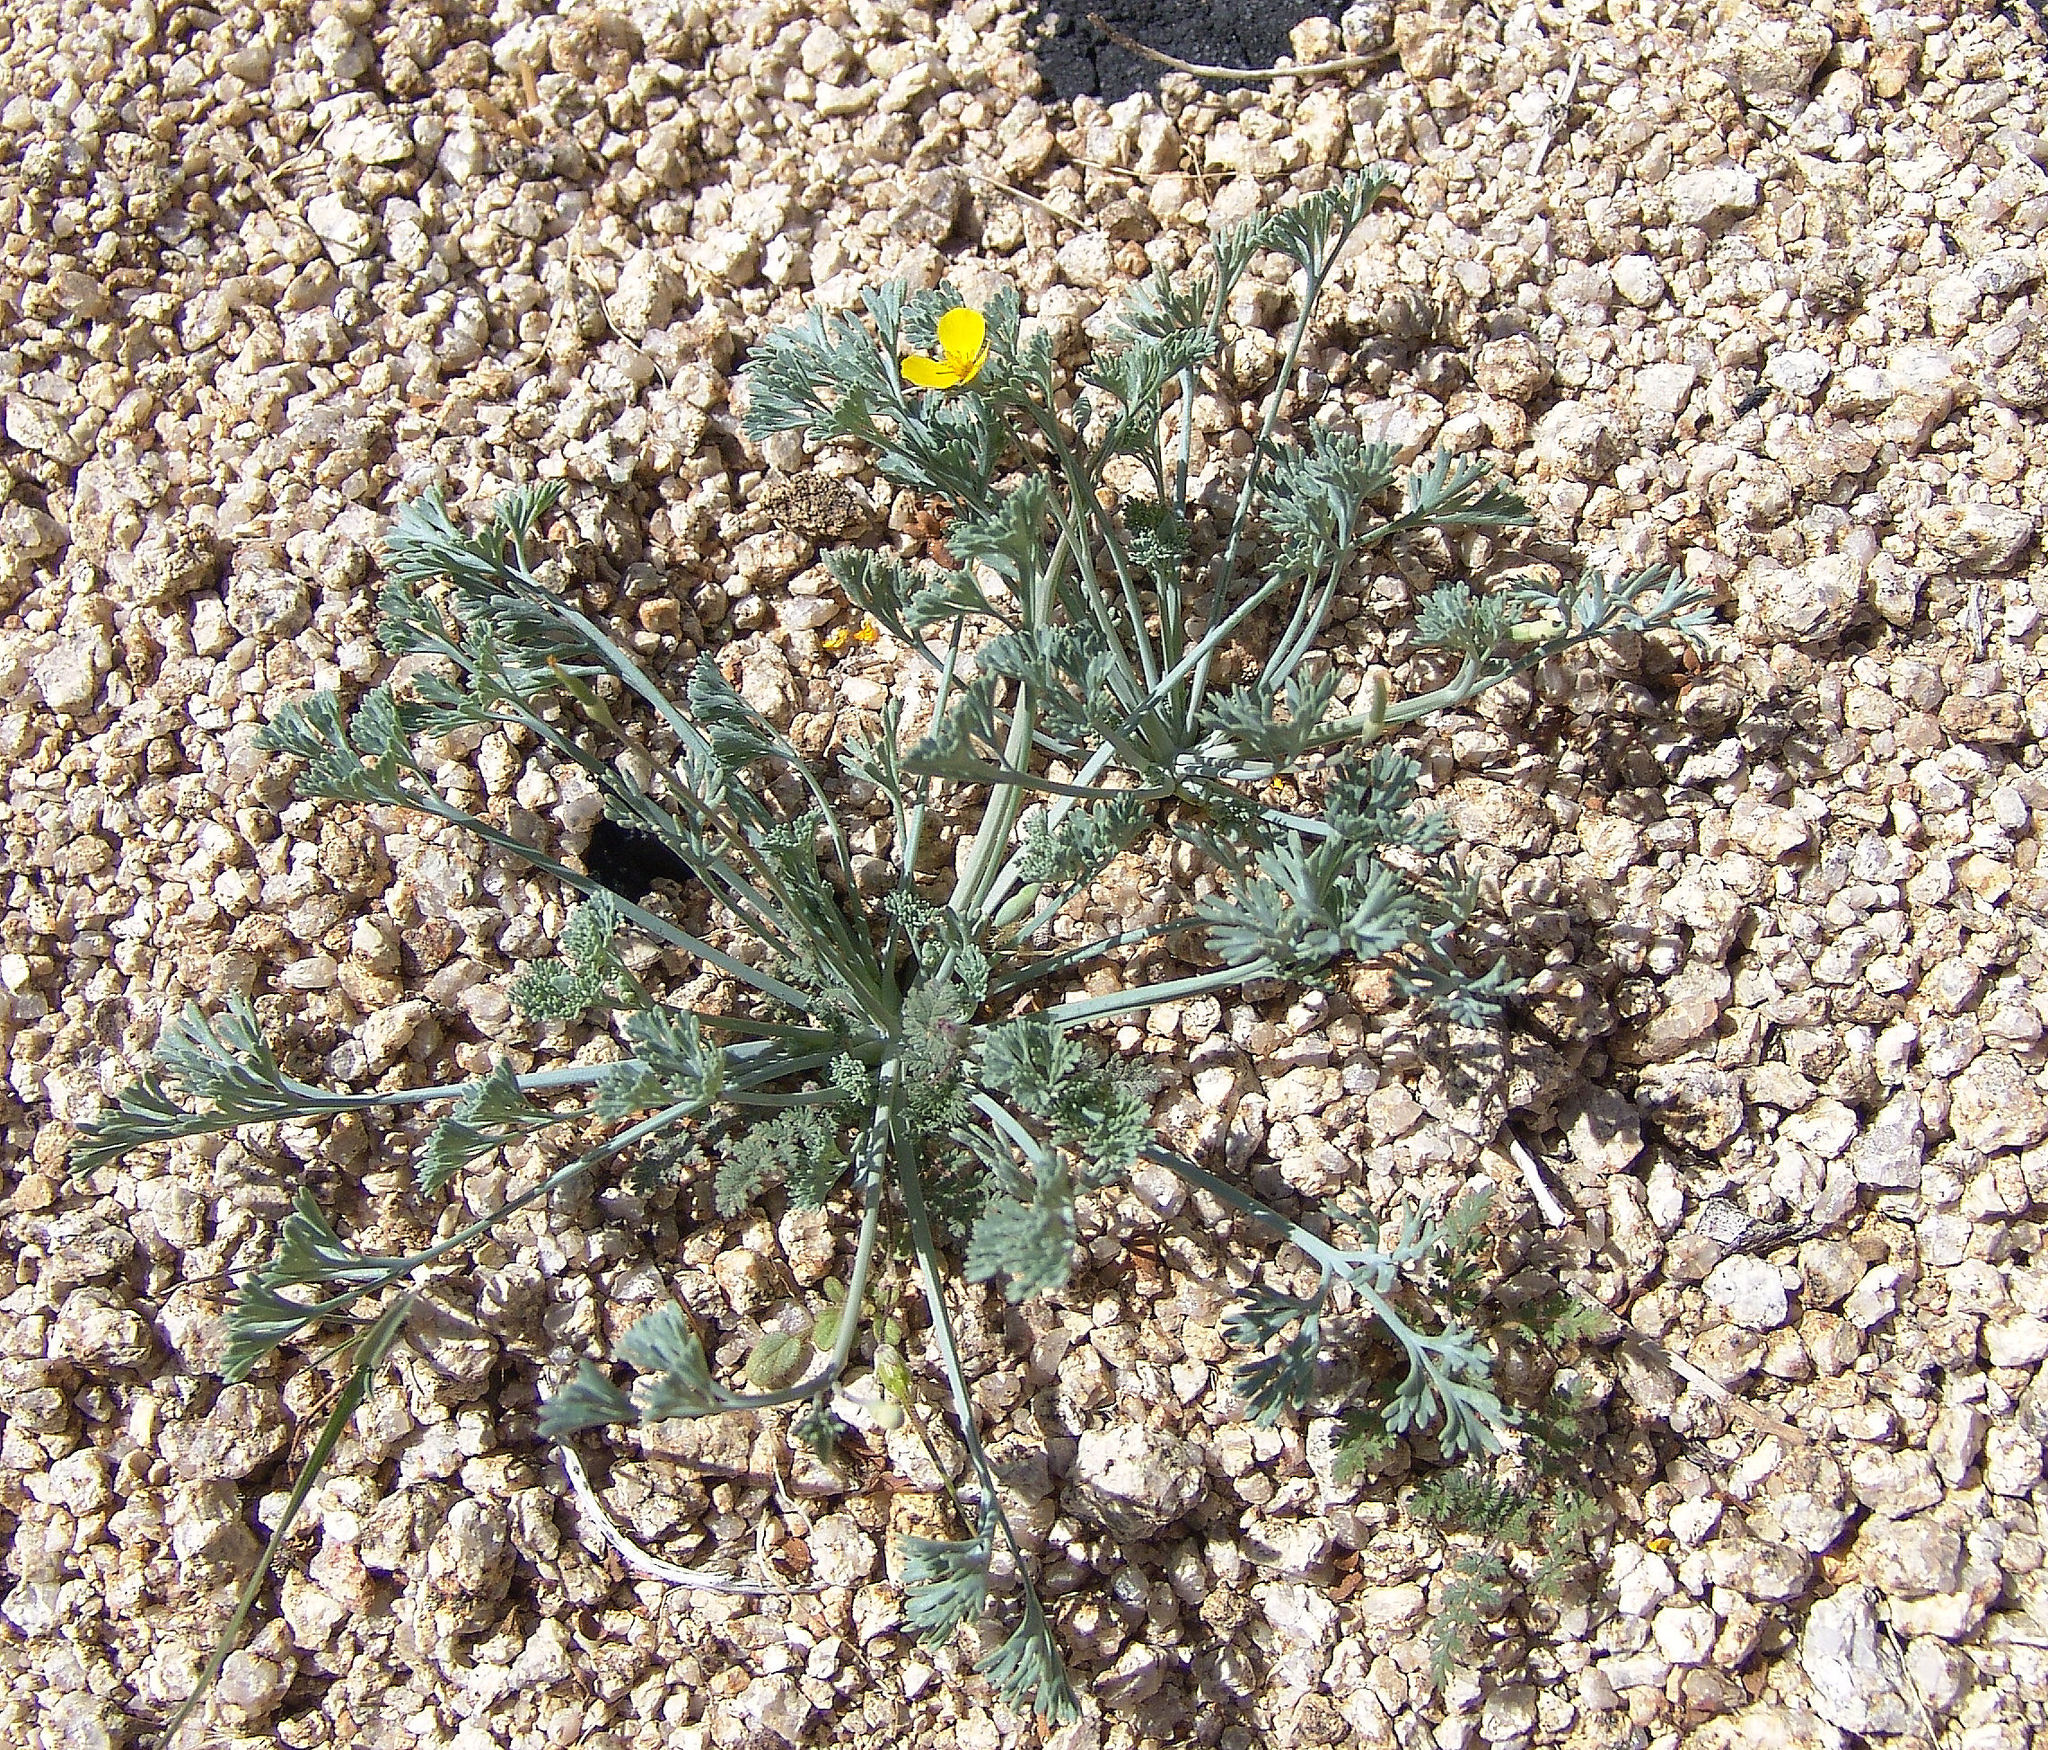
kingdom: Plantae
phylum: Tracheophyta
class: Magnoliopsida
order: Ranunculales
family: Papaveraceae
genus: Eschscholzia
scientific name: Eschscholzia minutiflora
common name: Small-flower california-poppy
